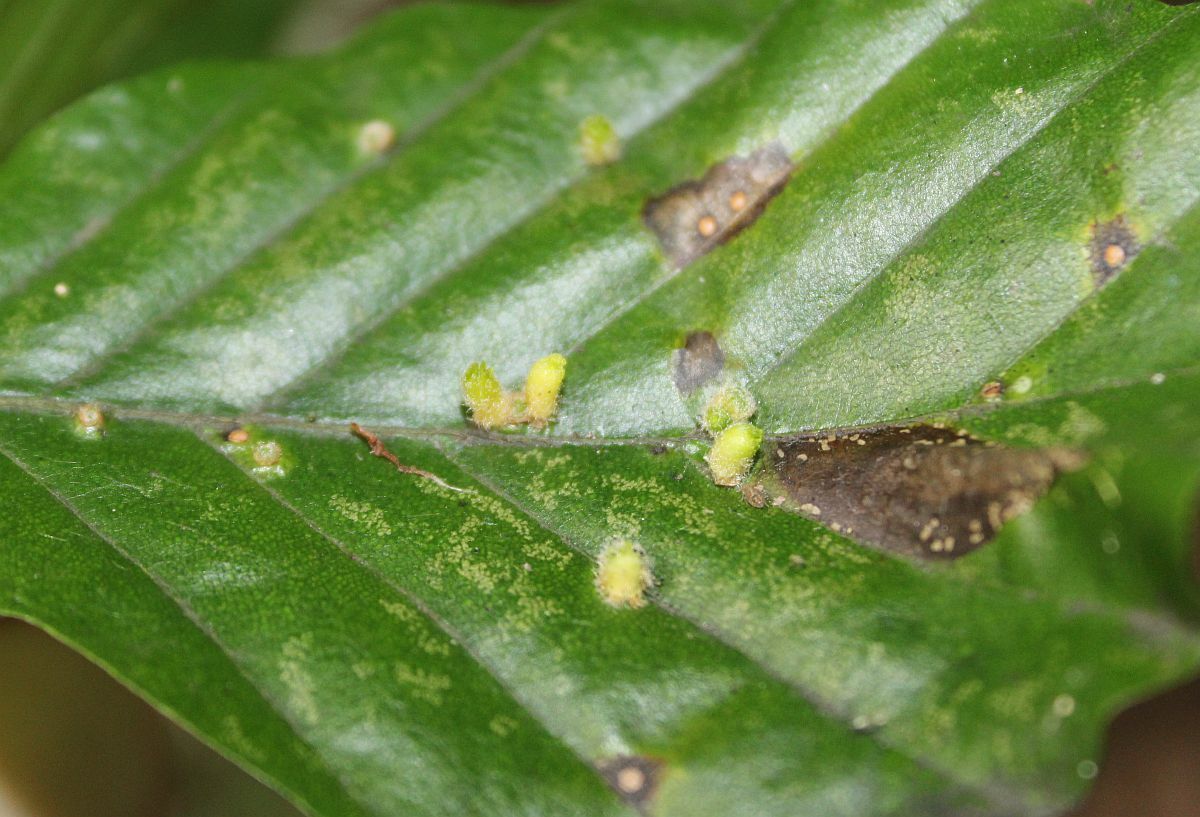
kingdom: Animalia
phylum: Arthropoda
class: Insecta
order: Diptera
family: Cecidomyiidae
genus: Hartigiola
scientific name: Hartigiola annulipes
